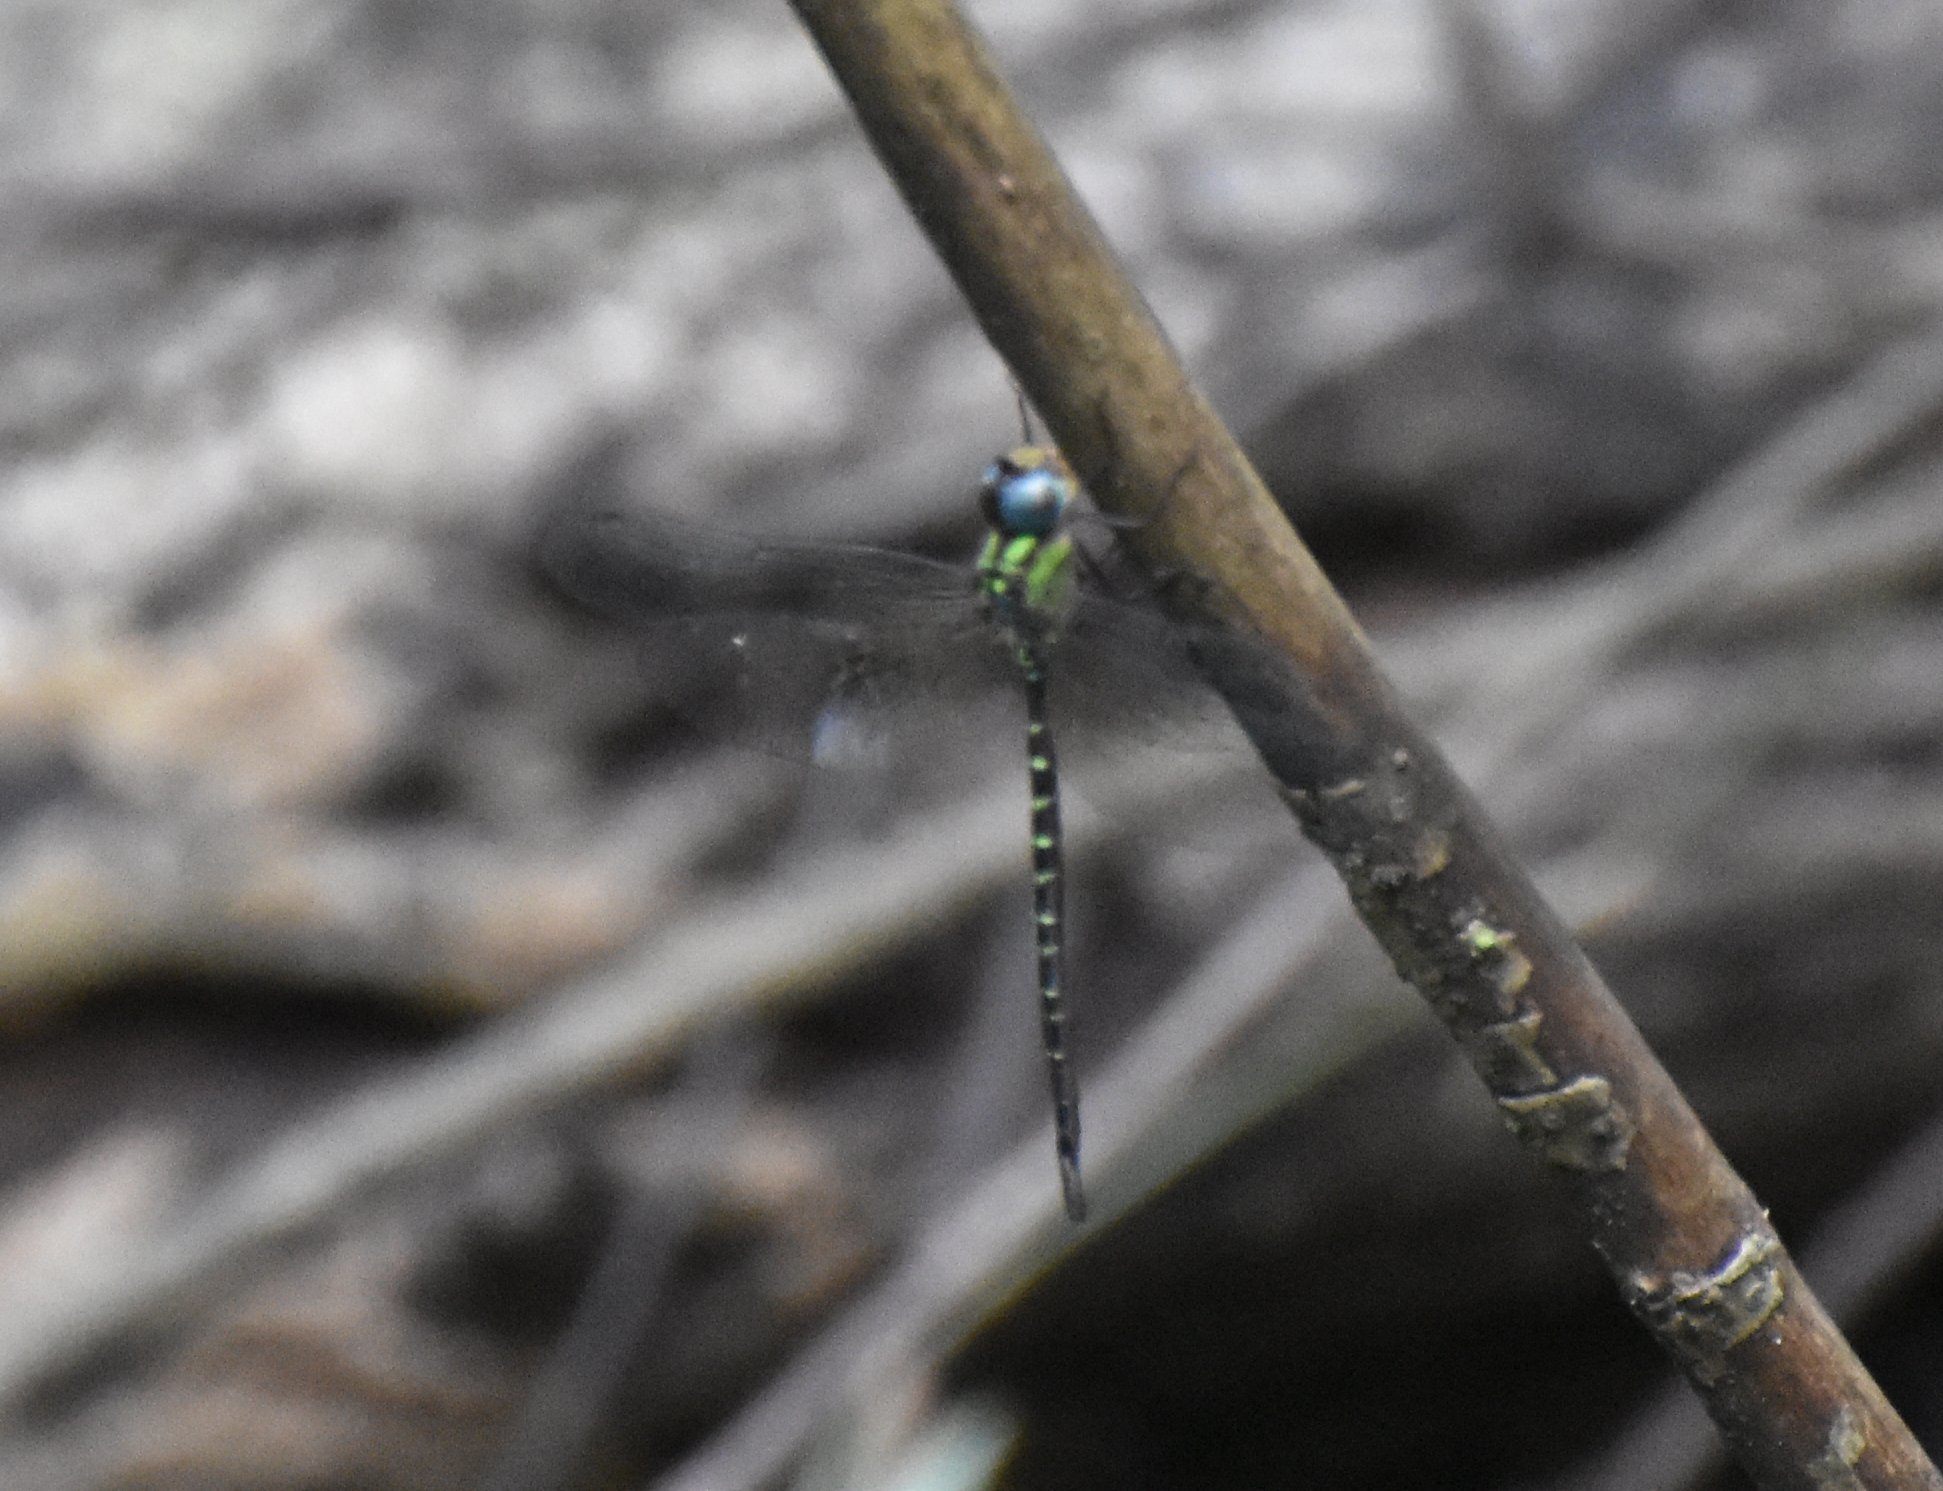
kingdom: Animalia
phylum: Arthropoda
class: Insecta
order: Odonata
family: Aeshnidae
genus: Triacanthagyna
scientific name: Triacanthagyna trifida
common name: Phantom darner
